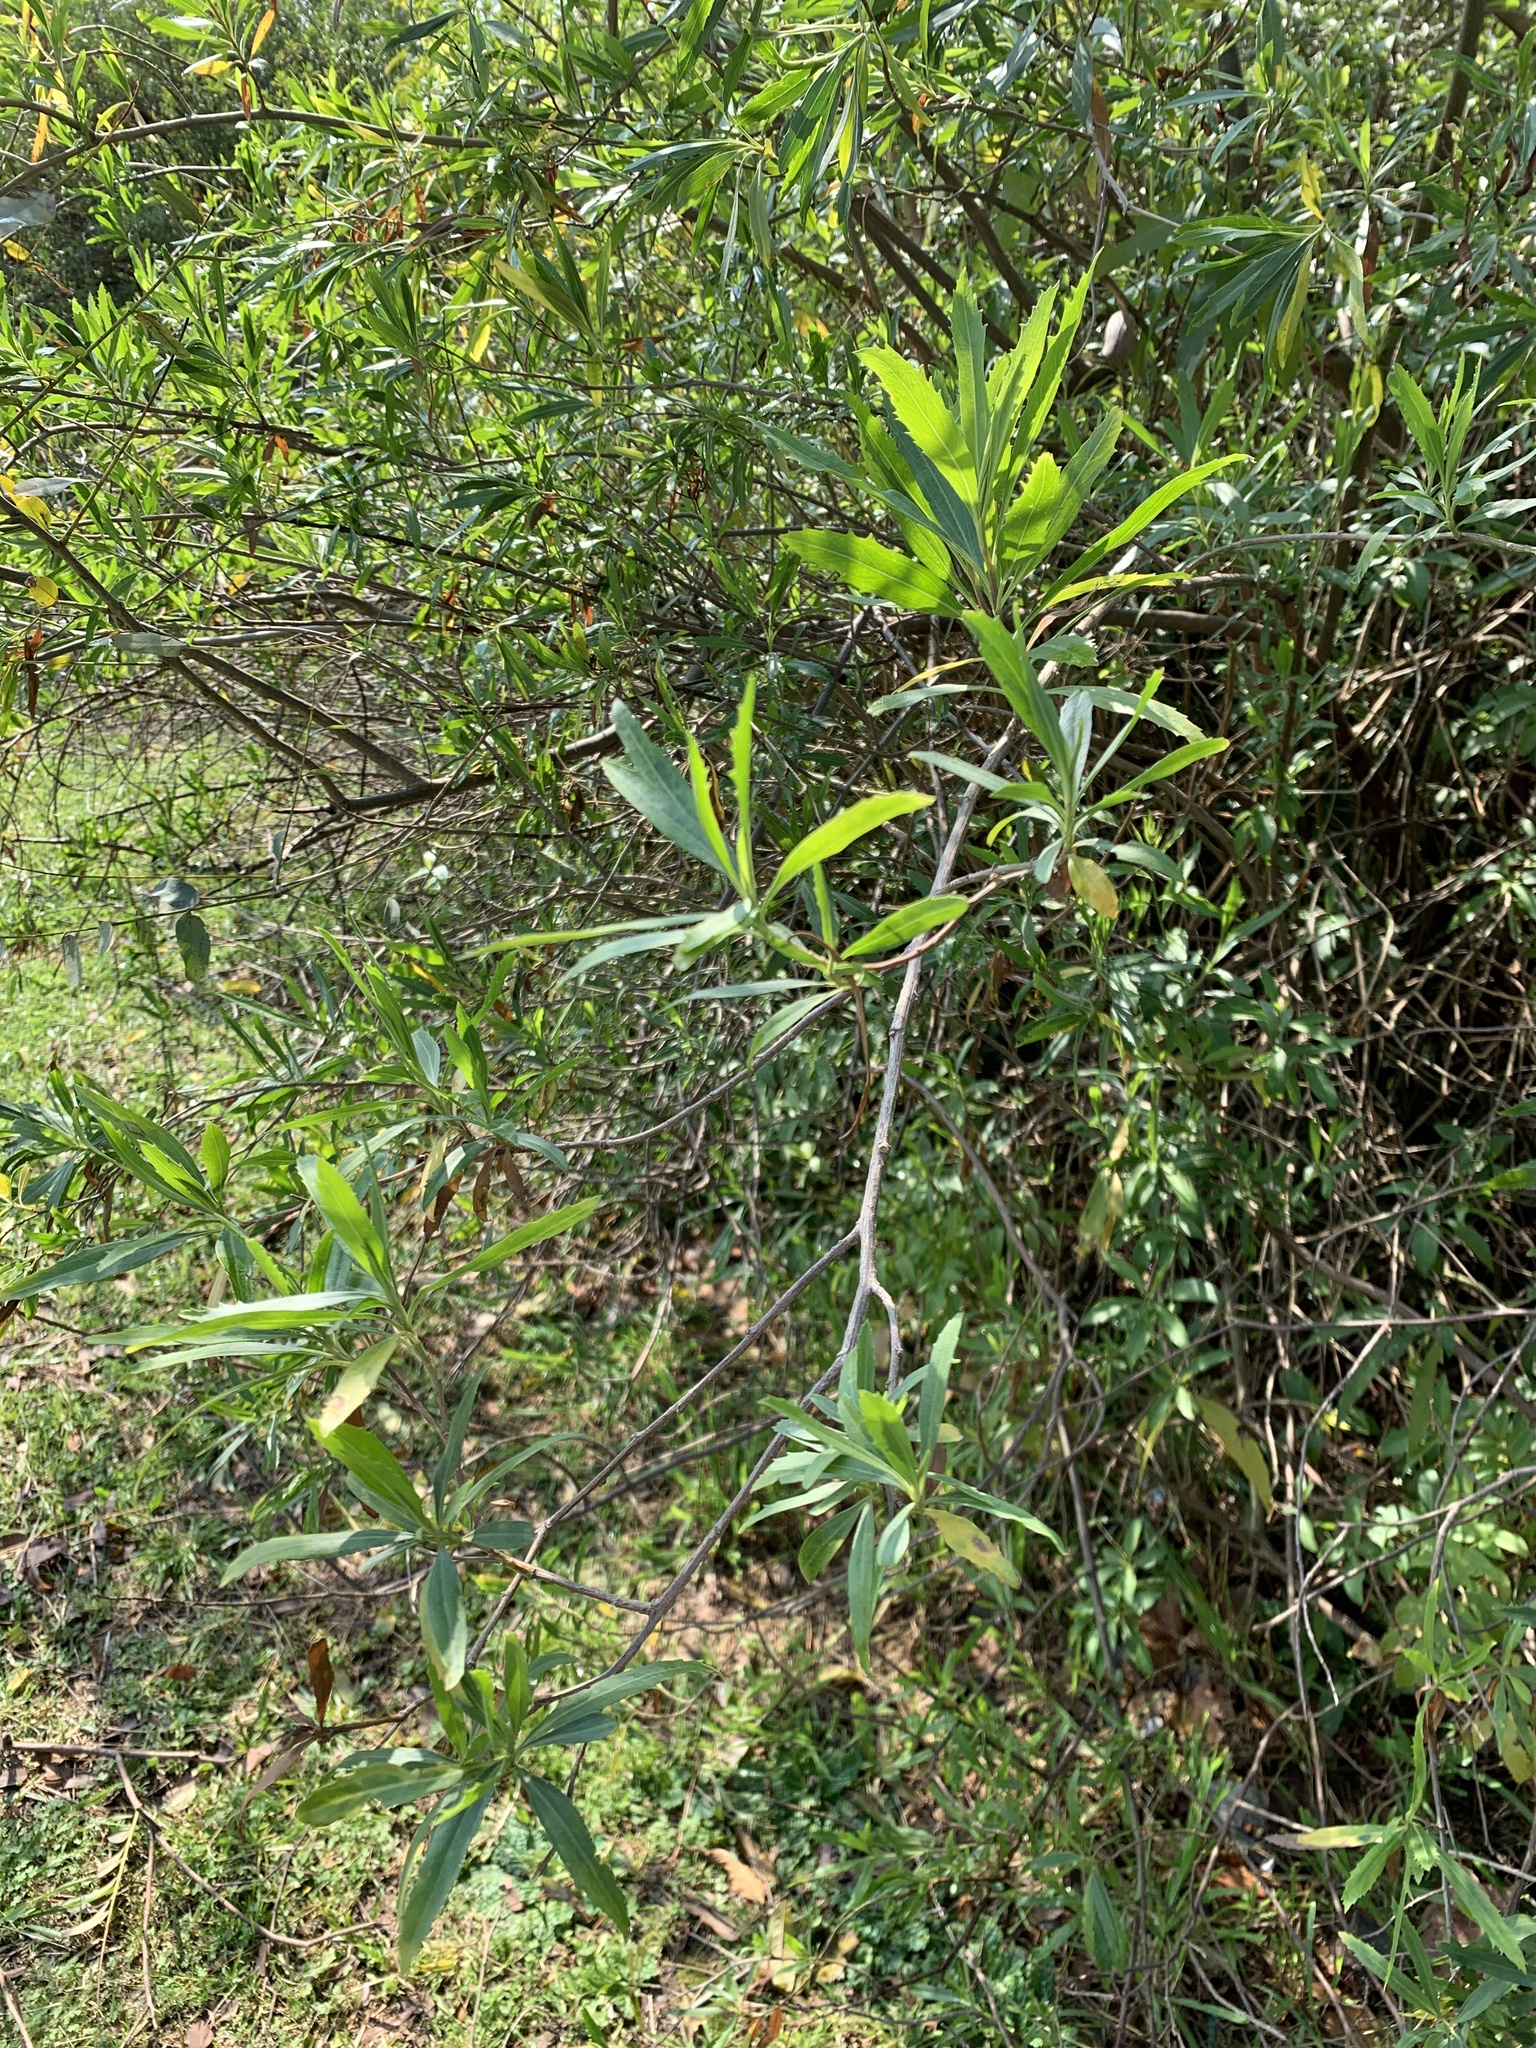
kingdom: Plantae
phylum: Tracheophyta
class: Magnoliopsida
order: Asterales
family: Asteraceae
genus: Baccharis
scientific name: Baccharis salicifolia
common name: Sticky baccharis
